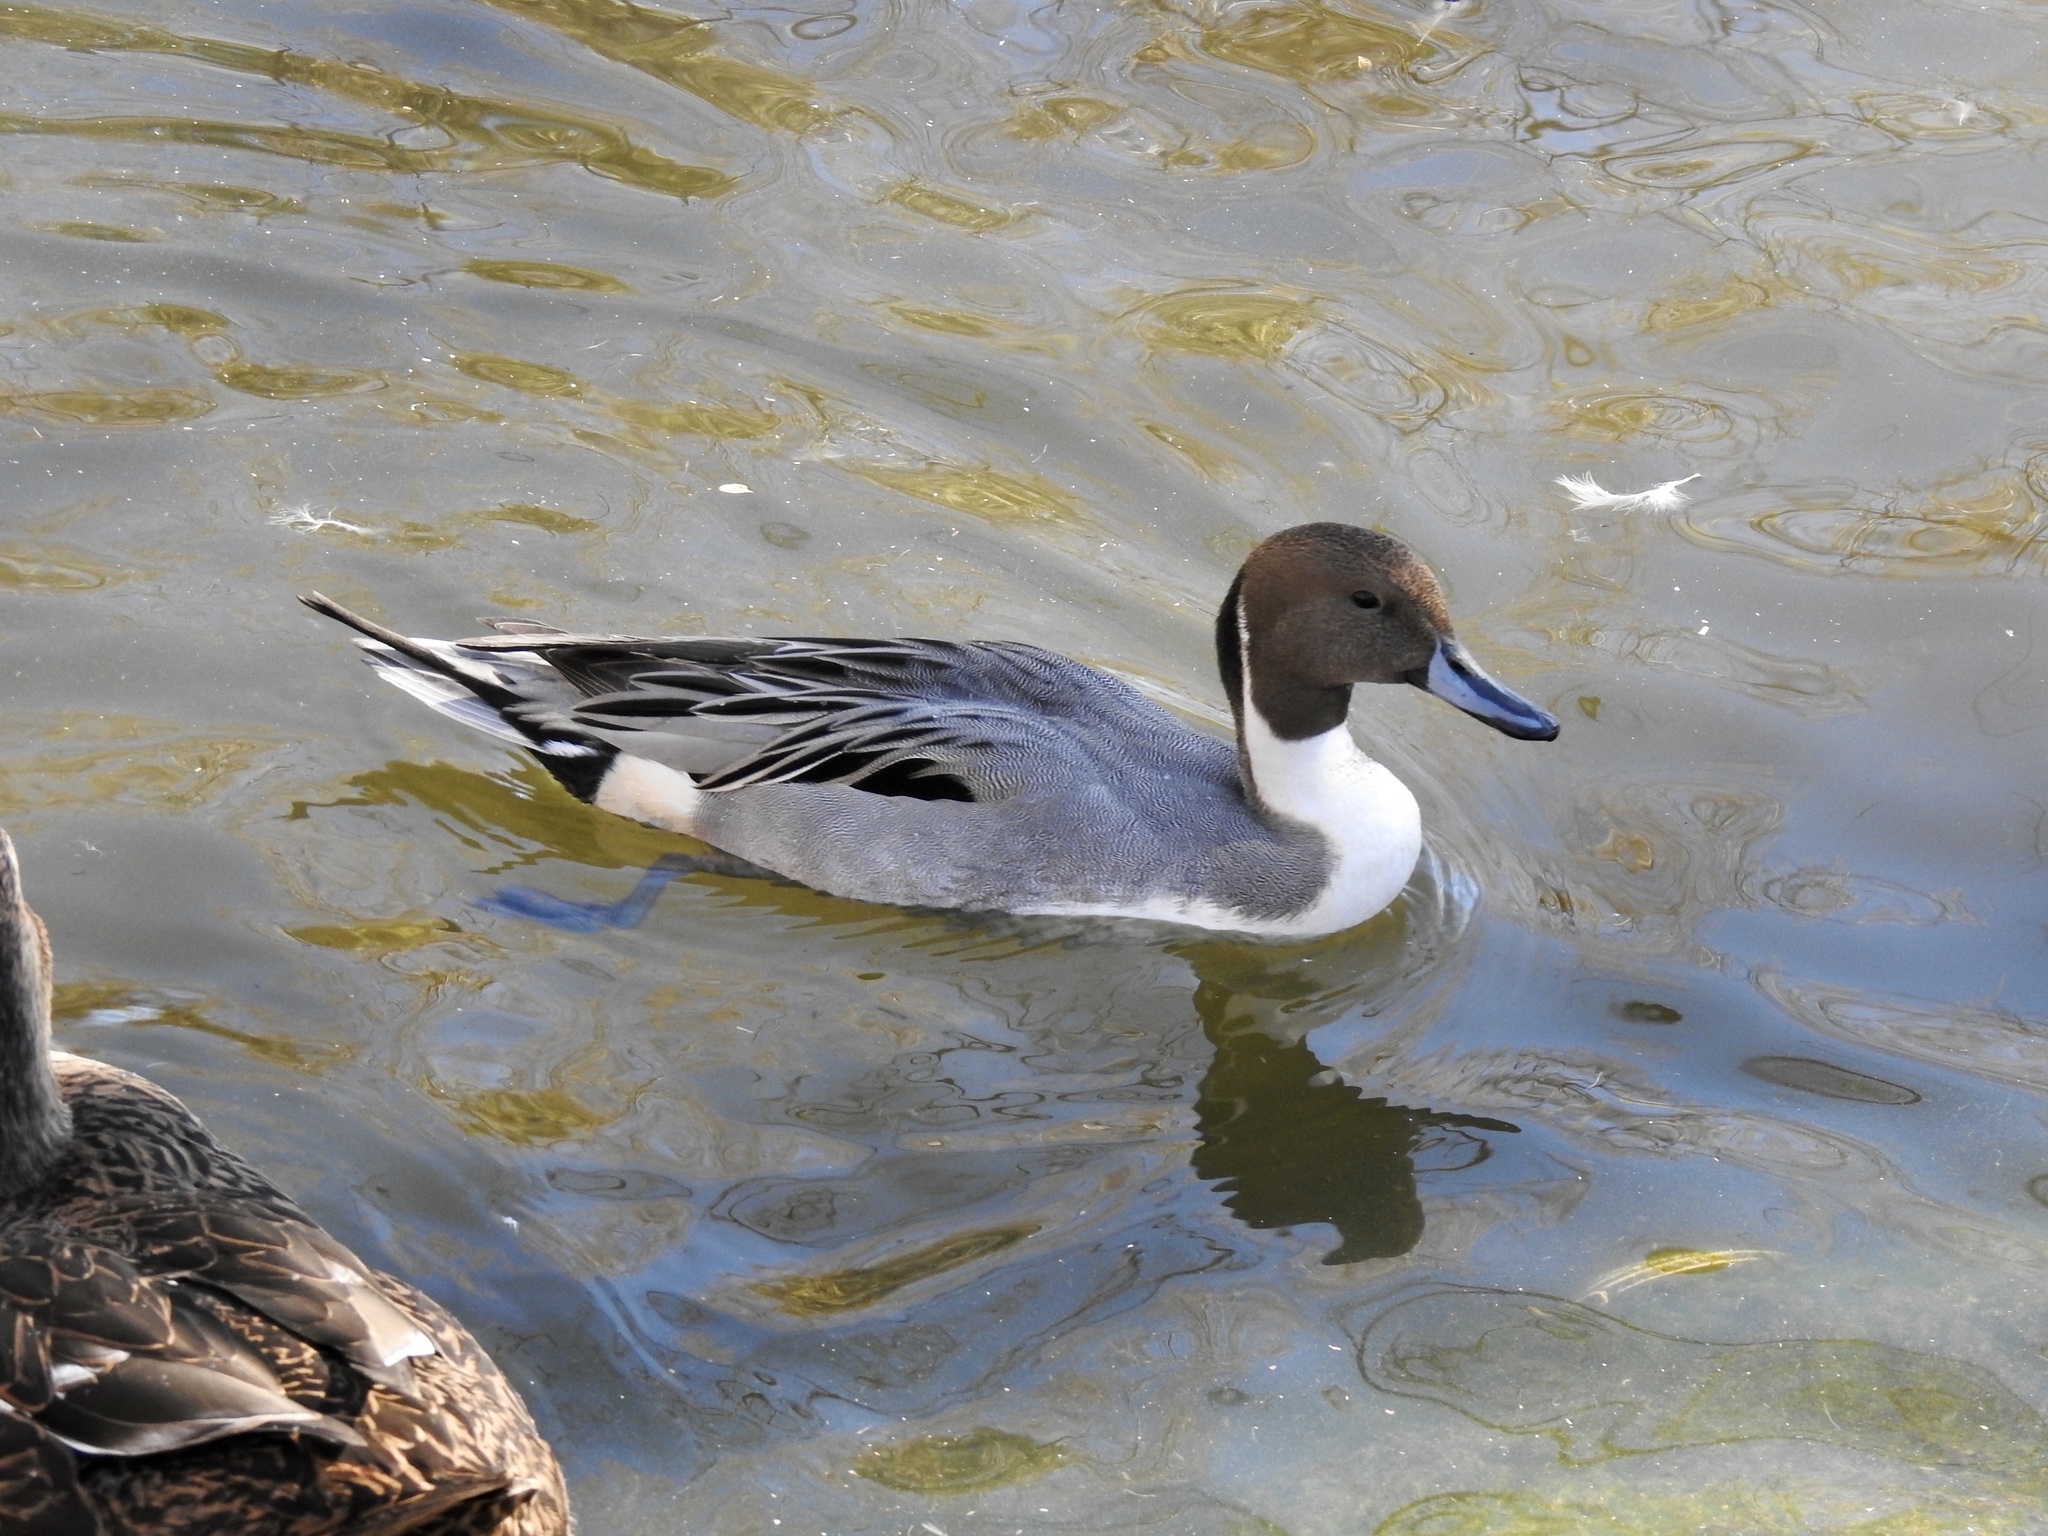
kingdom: Animalia
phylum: Chordata
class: Aves
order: Anseriformes
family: Anatidae
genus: Anas
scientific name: Anas acuta
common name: Northern pintail
